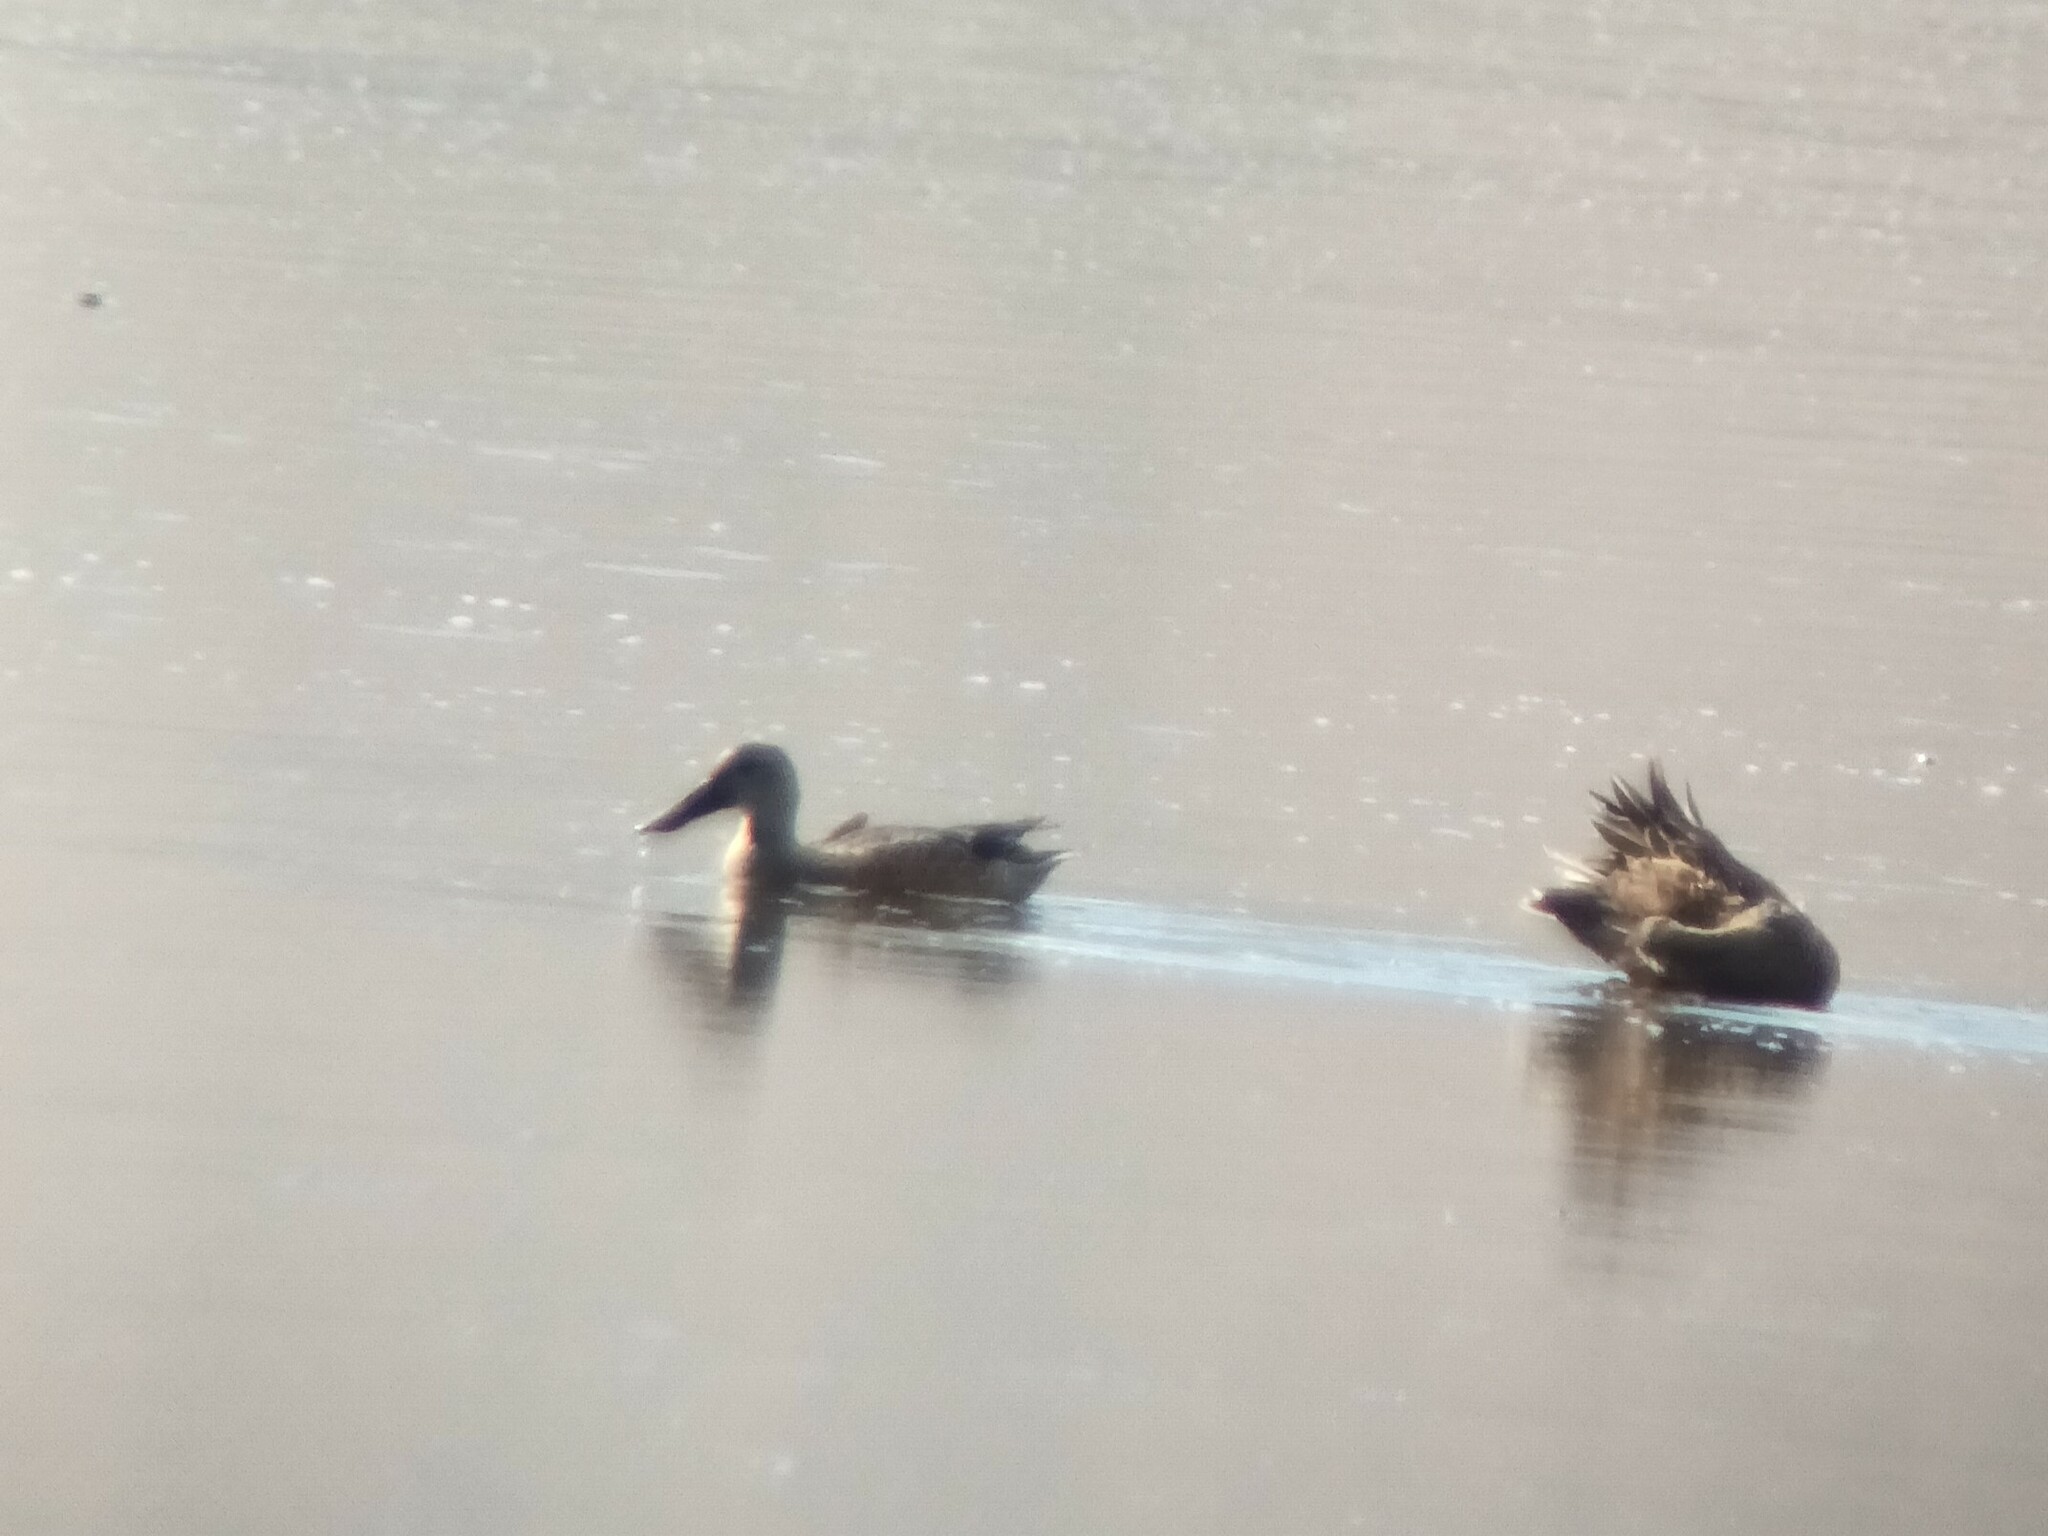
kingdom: Animalia
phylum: Chordata
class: Aves
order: Anseriformes
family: Anatidae
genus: Spatula
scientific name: Spatula clypeata
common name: Northern shoveler
